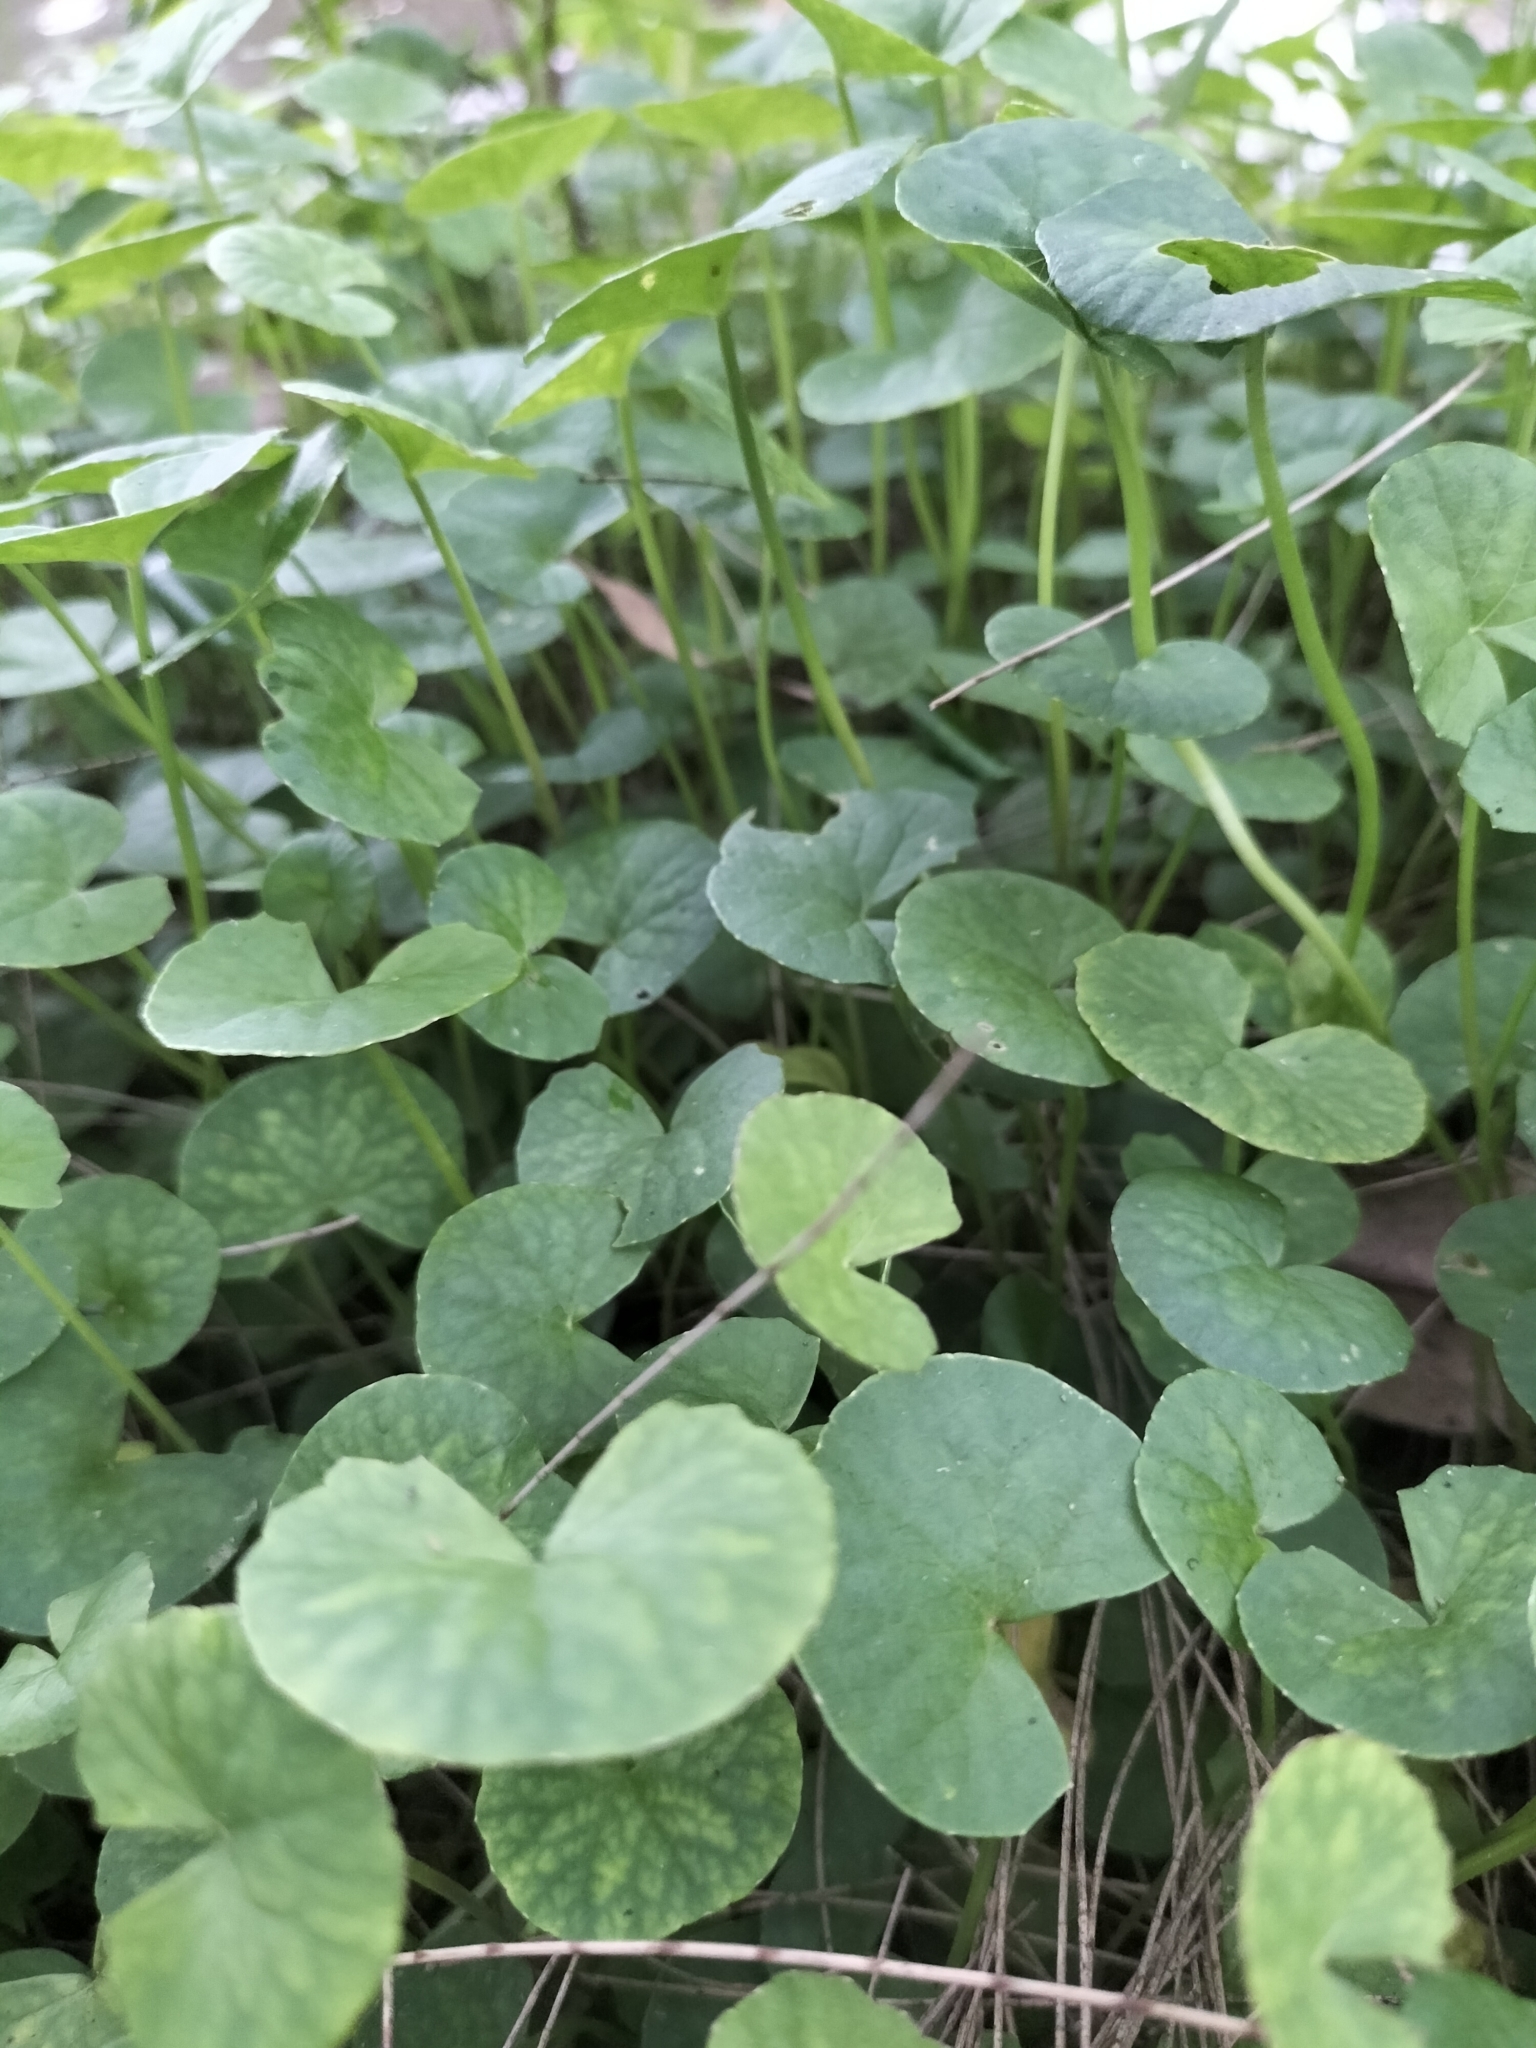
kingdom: Plantae
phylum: Tracheophyta
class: Magnoliopsida
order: Apiales
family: Apiaceae
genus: Centella
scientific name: Centella asiatica
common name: Spadeleaf
